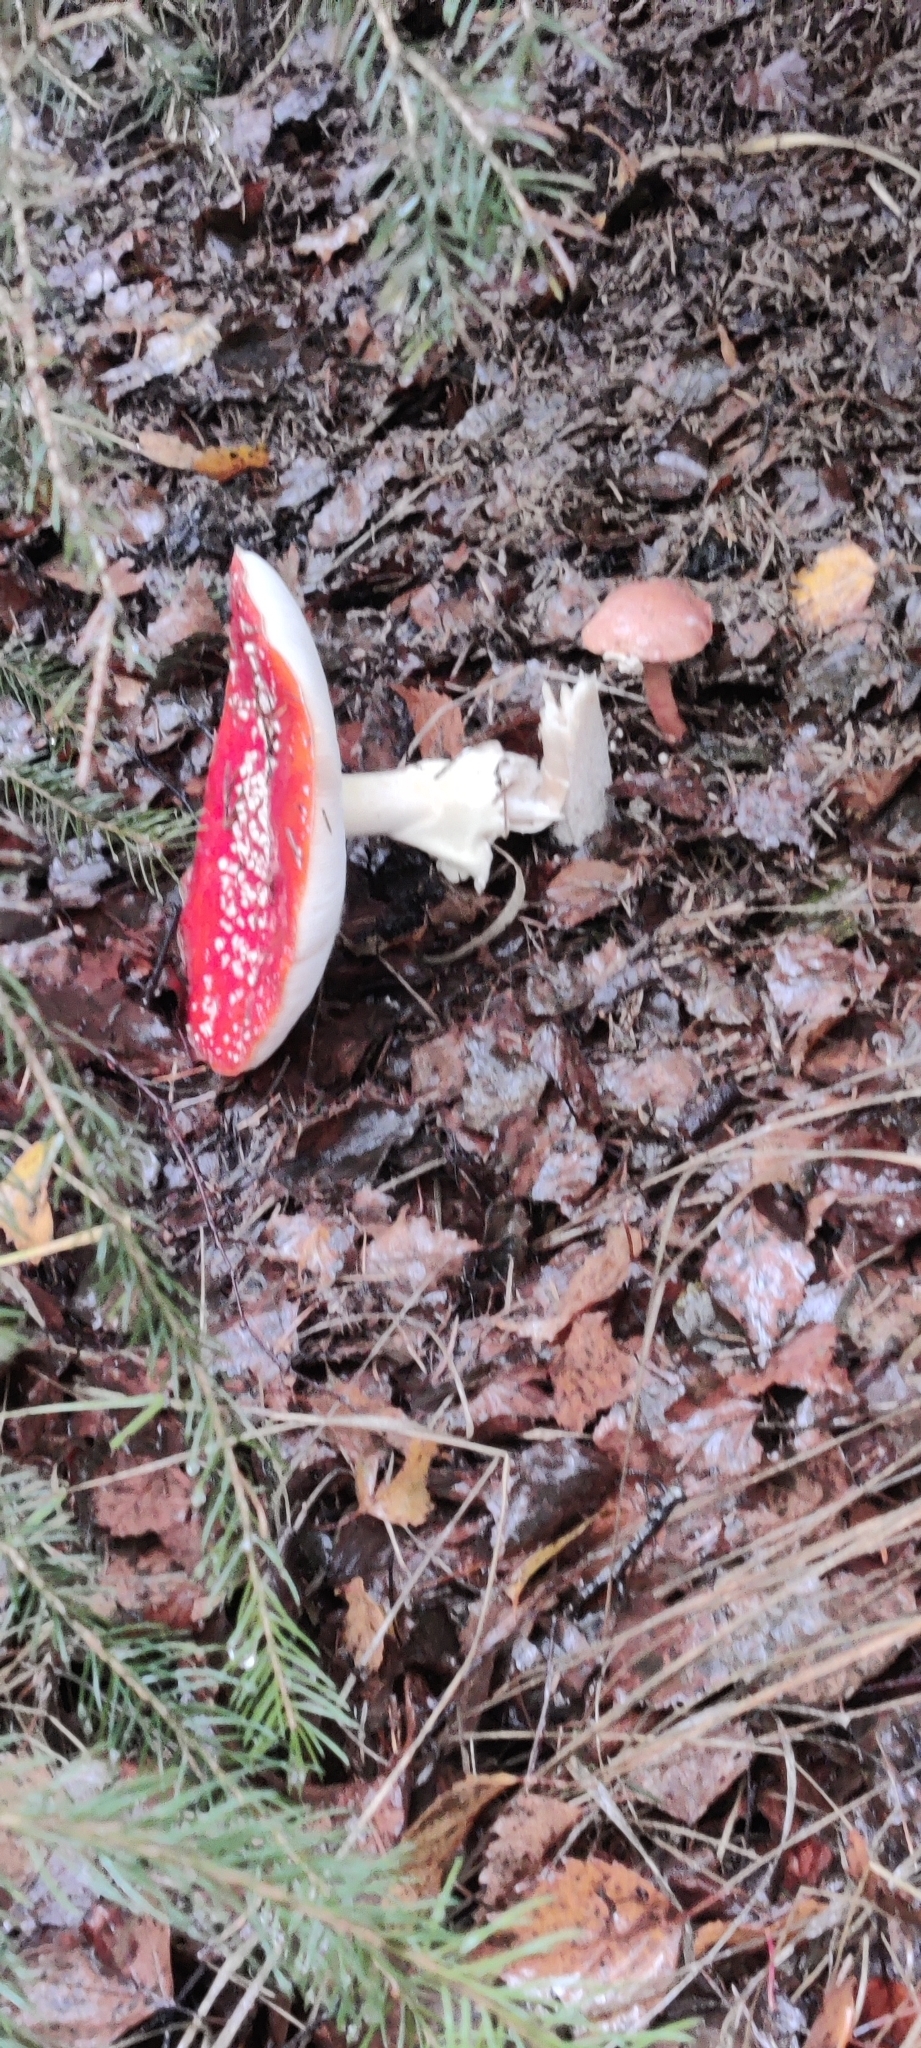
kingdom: Fungi
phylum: Basidiomycota
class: Agaricomycetes
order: Agaricales
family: Amanitaceae
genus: Amanita
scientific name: Amanita muscaria
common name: Fly agaric
